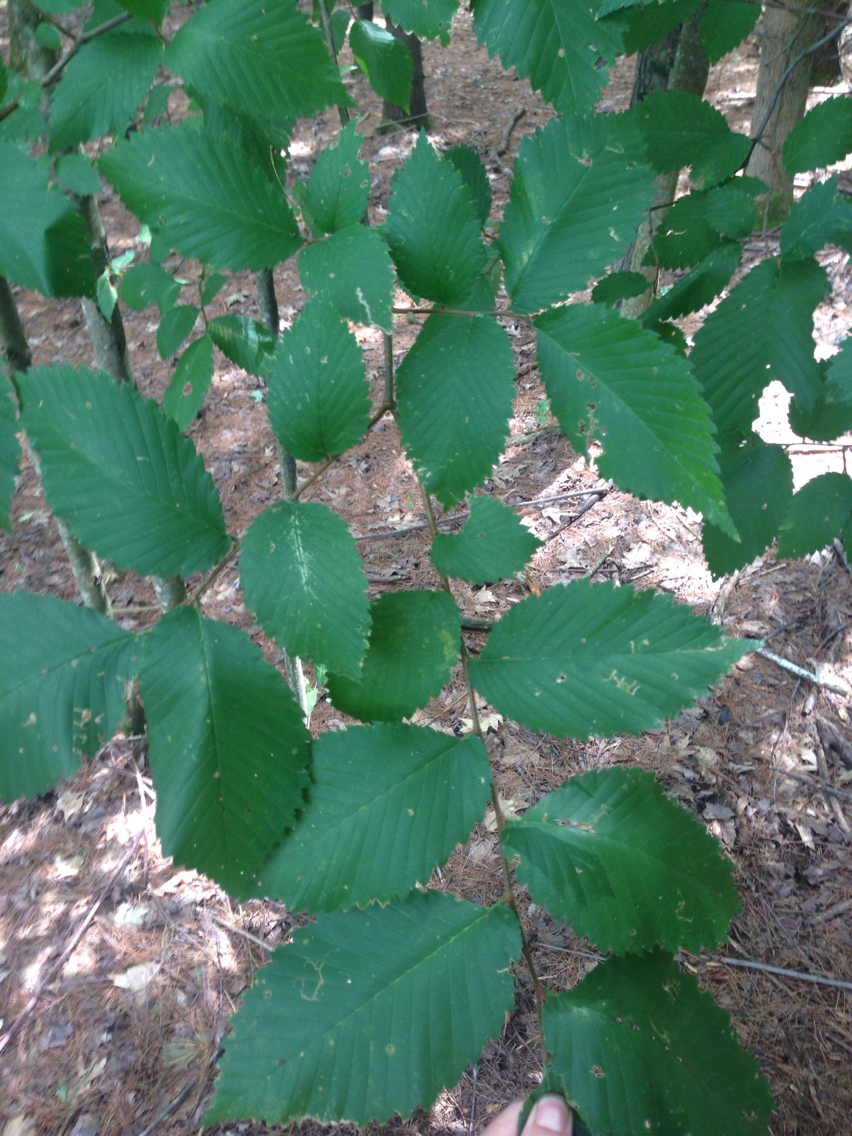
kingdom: Plantae
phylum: Tracheophyta
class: Magnoliopsida
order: Rosales
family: Ulmaceae
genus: Ulmus
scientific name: Ulmus americana
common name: American elm
